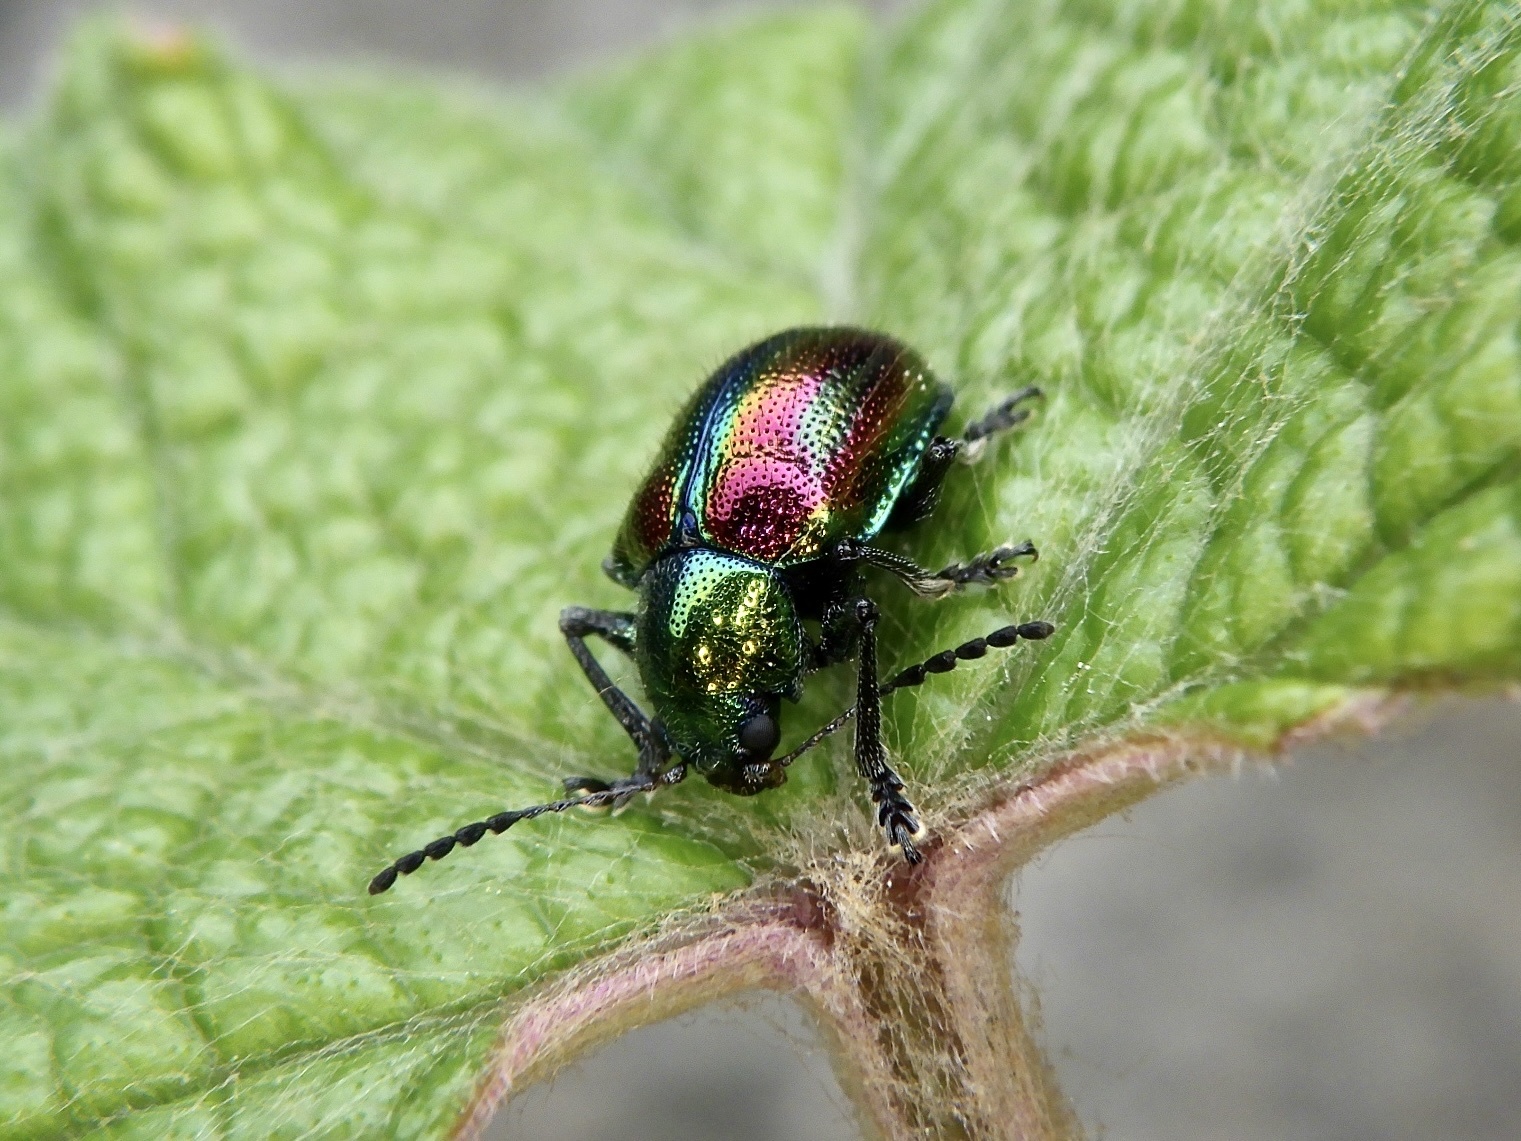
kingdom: Animalia
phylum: Arthropoda
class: Insecta
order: Coleoptera
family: Chrysomelidae
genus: Acrothinium
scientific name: Acrothinium gaschkevitchii
